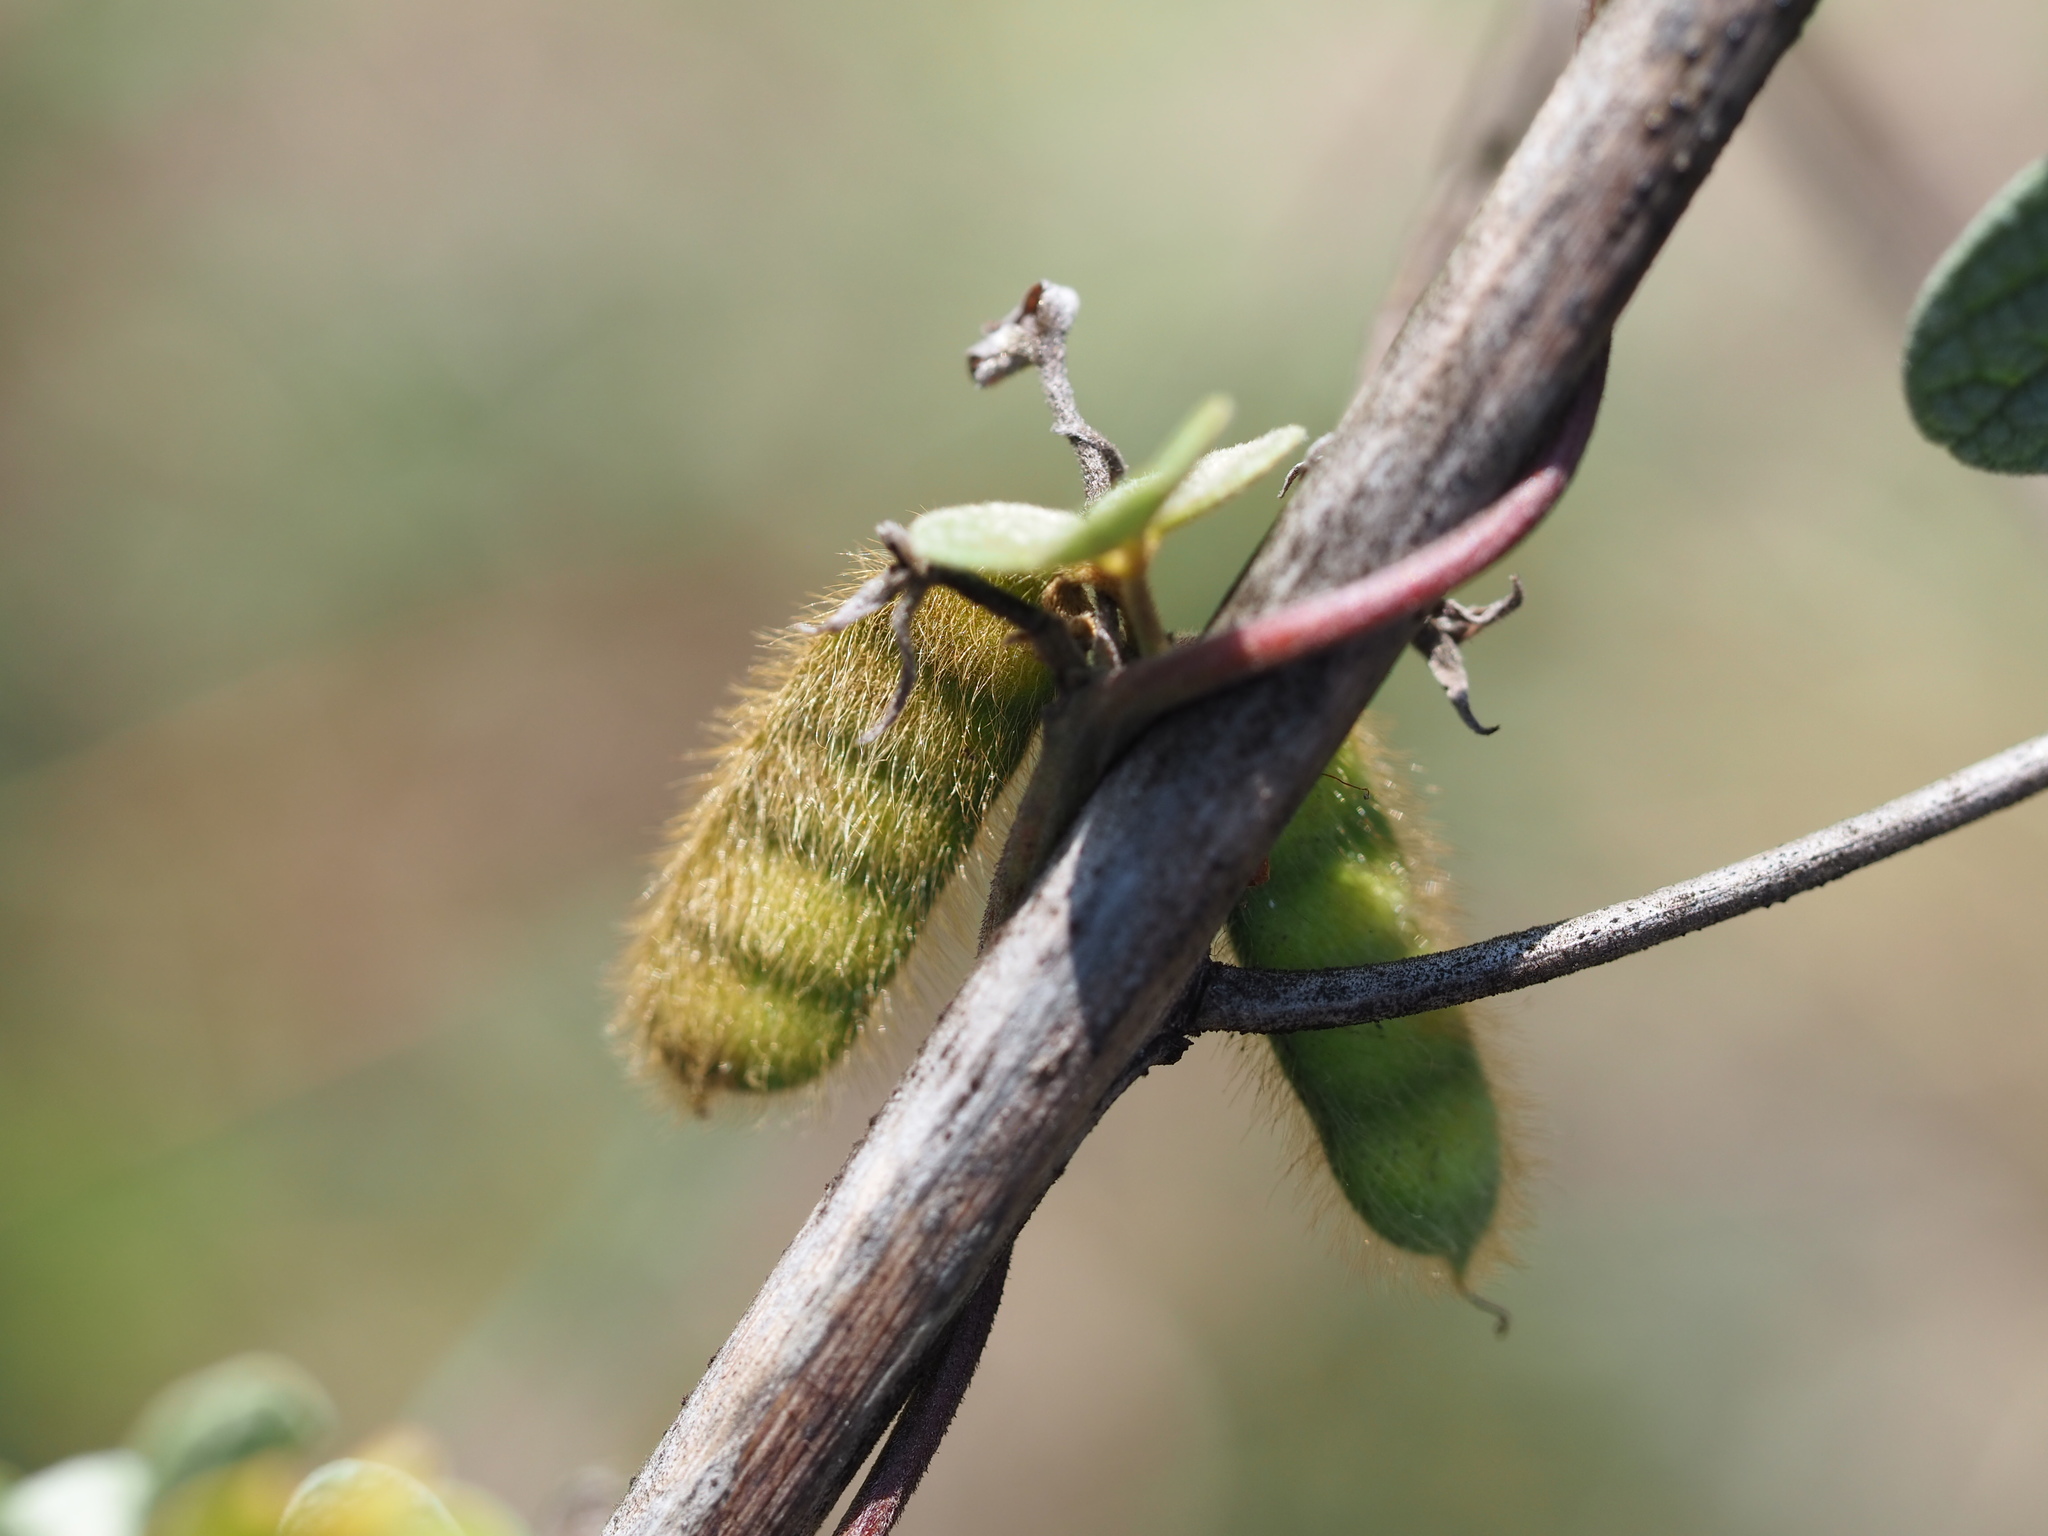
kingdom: Plantae
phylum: Tracheophyta
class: Magnoliopsida
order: Fabales
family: Fabaceae
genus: Cajanus
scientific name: Cajanus scarabaeoides
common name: Showy pigeonpea
